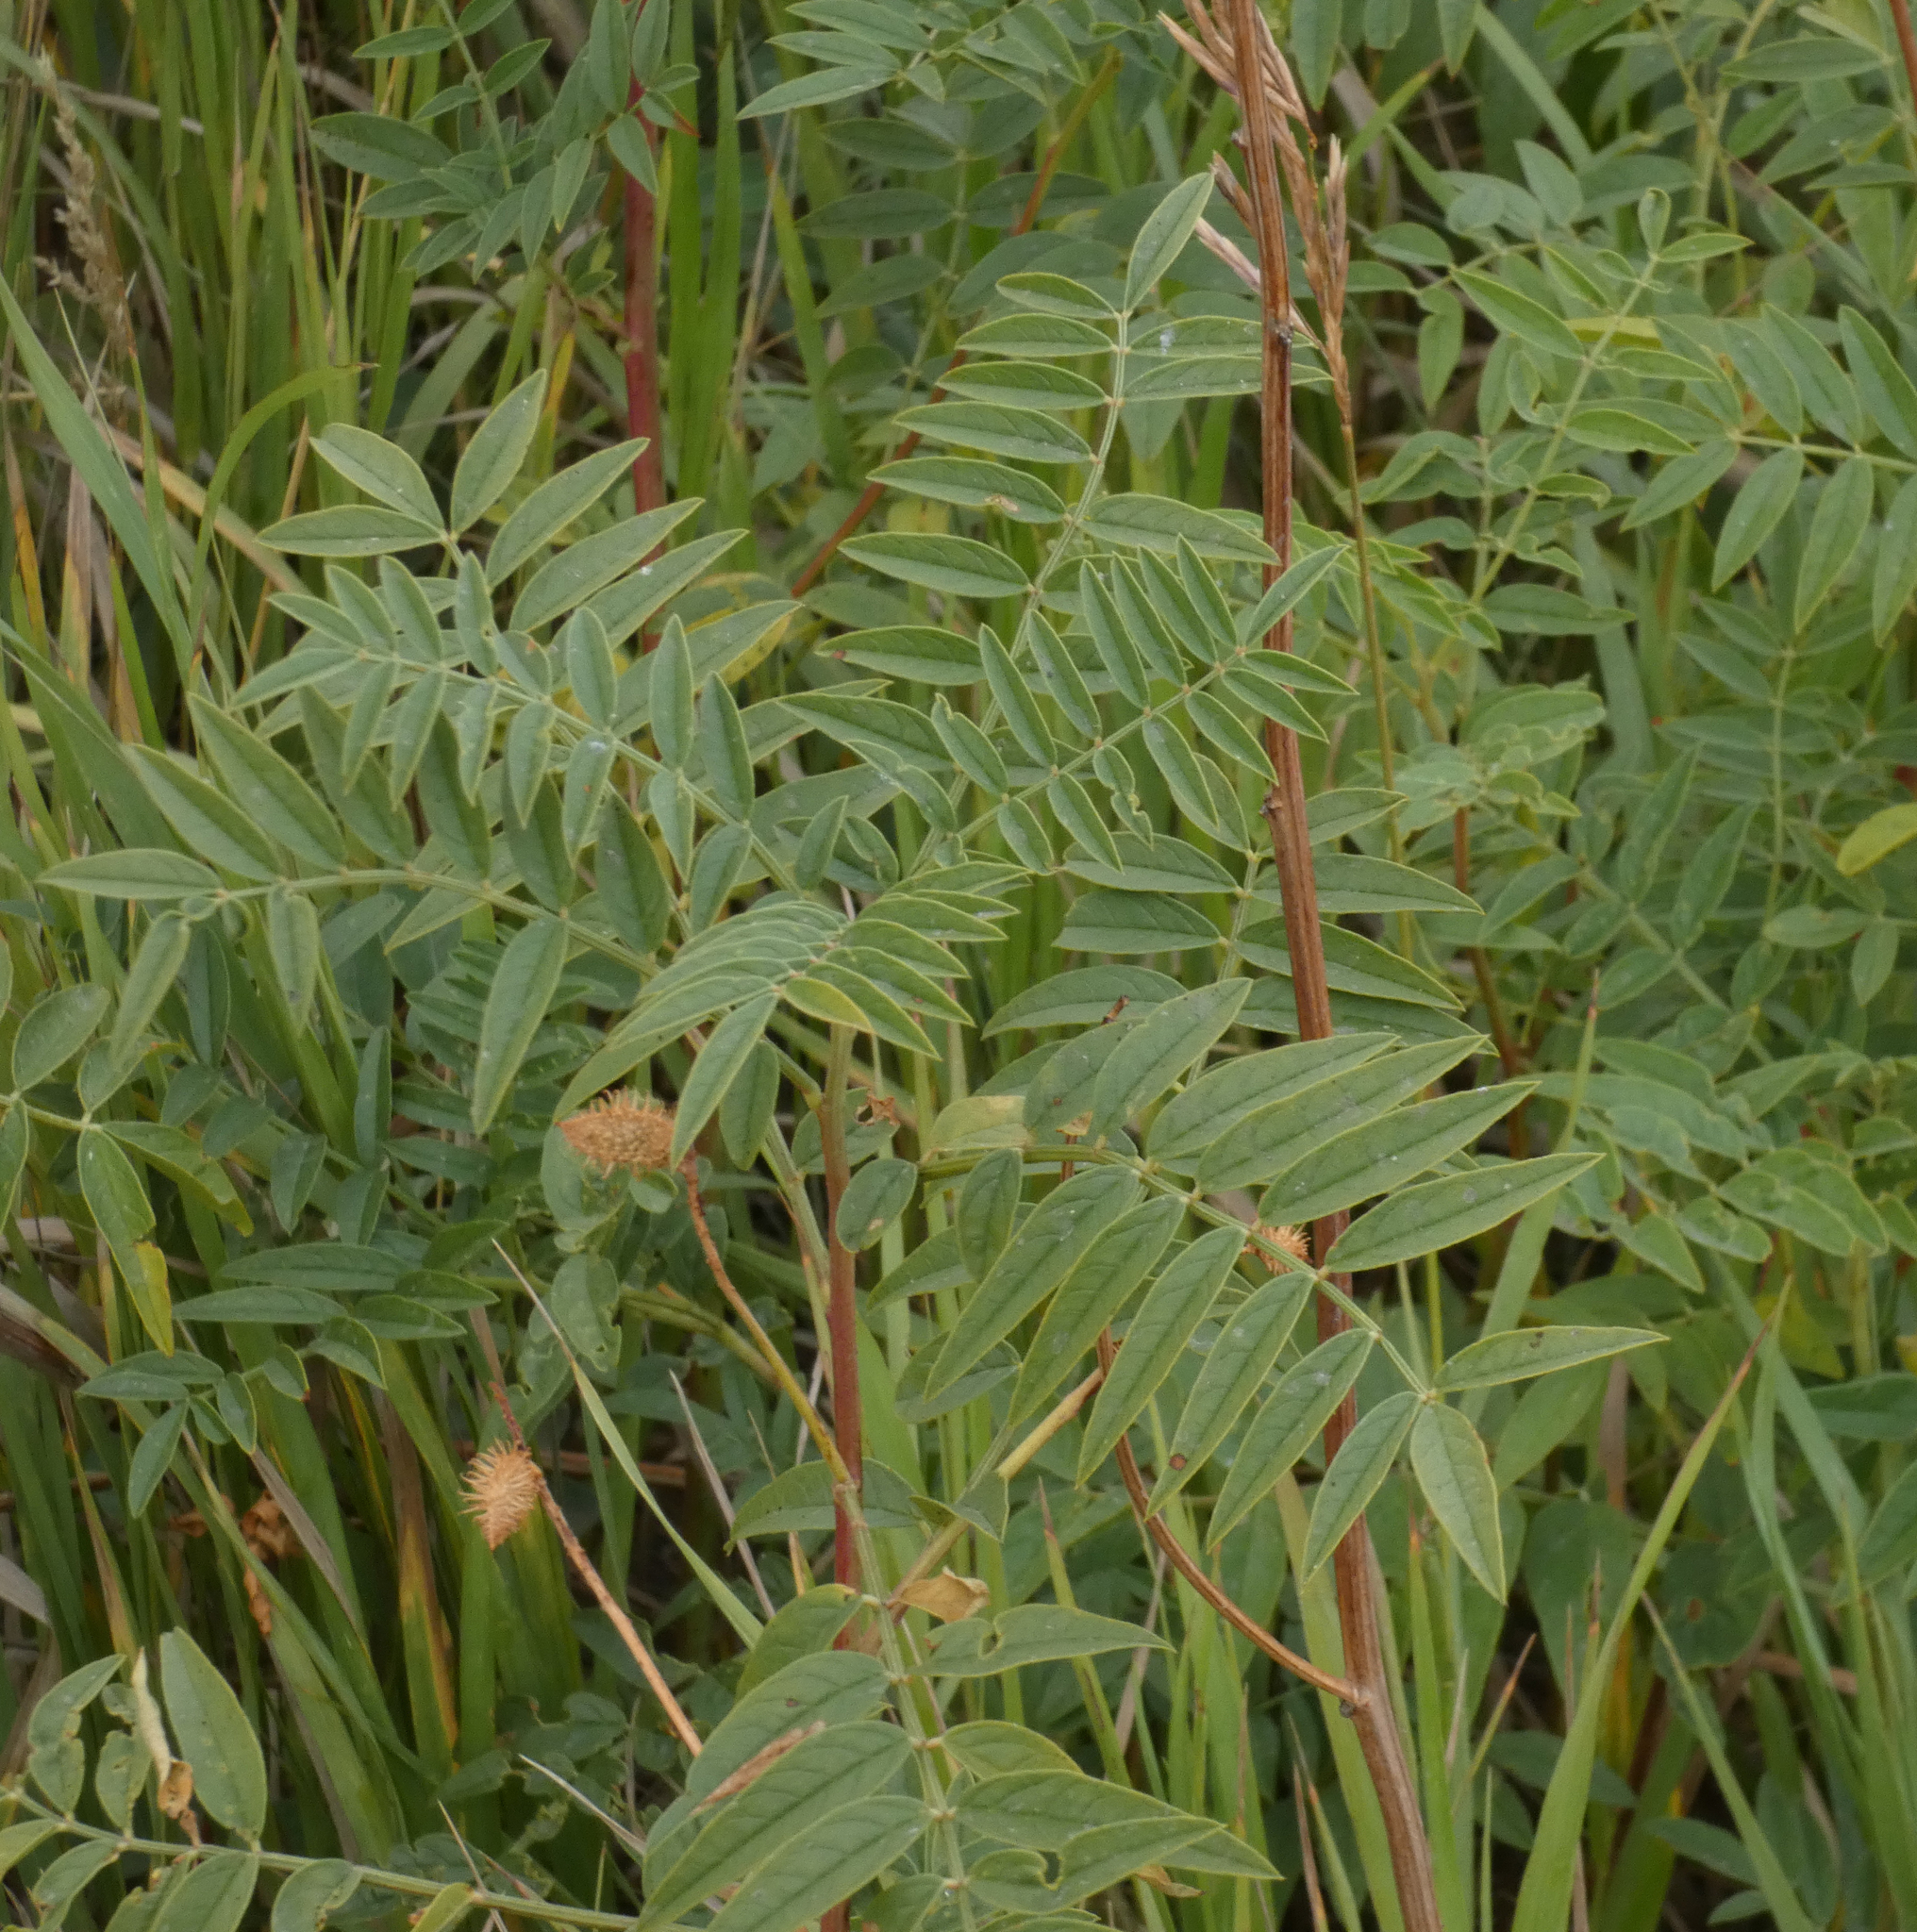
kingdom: Plantae
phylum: Tracheophyta
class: Magnoliopsida
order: Fabales
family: Fabaceae
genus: Glycyrrhiza
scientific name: Glycyrrhiza lepidota
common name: American liquorice
